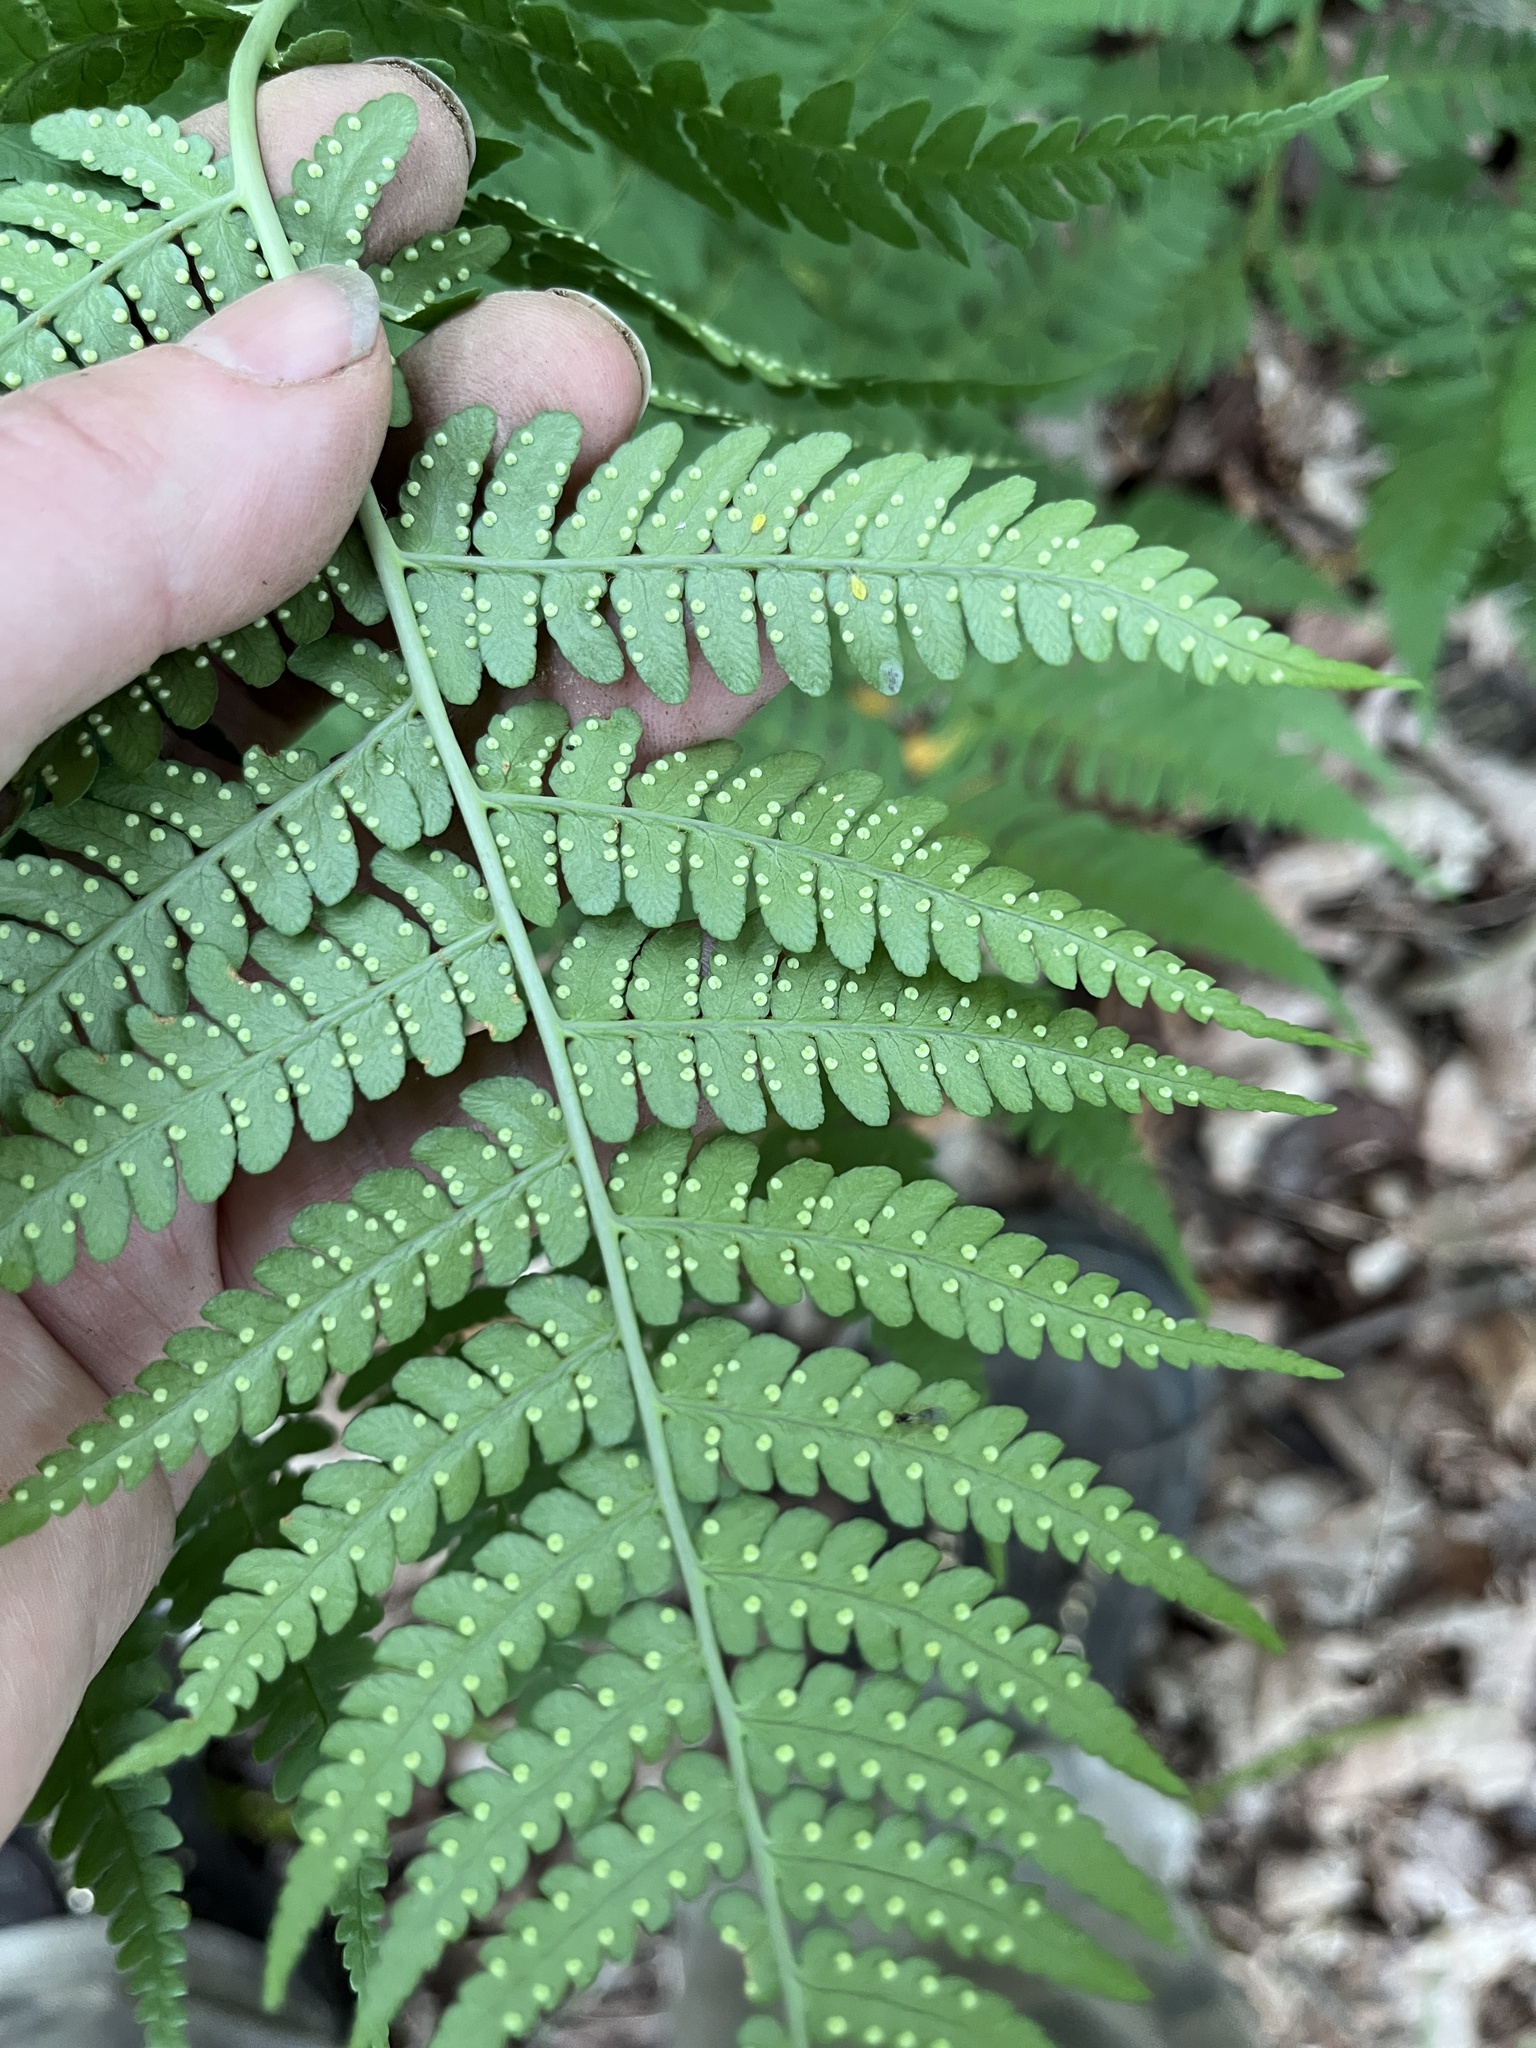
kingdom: Plantae
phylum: Tracheophyta
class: Polypodiopsida
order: Polypodiales
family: Dryopteridaceae
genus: Dryopteris
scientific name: Dryopteris marginalis
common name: Marginal wood fern
